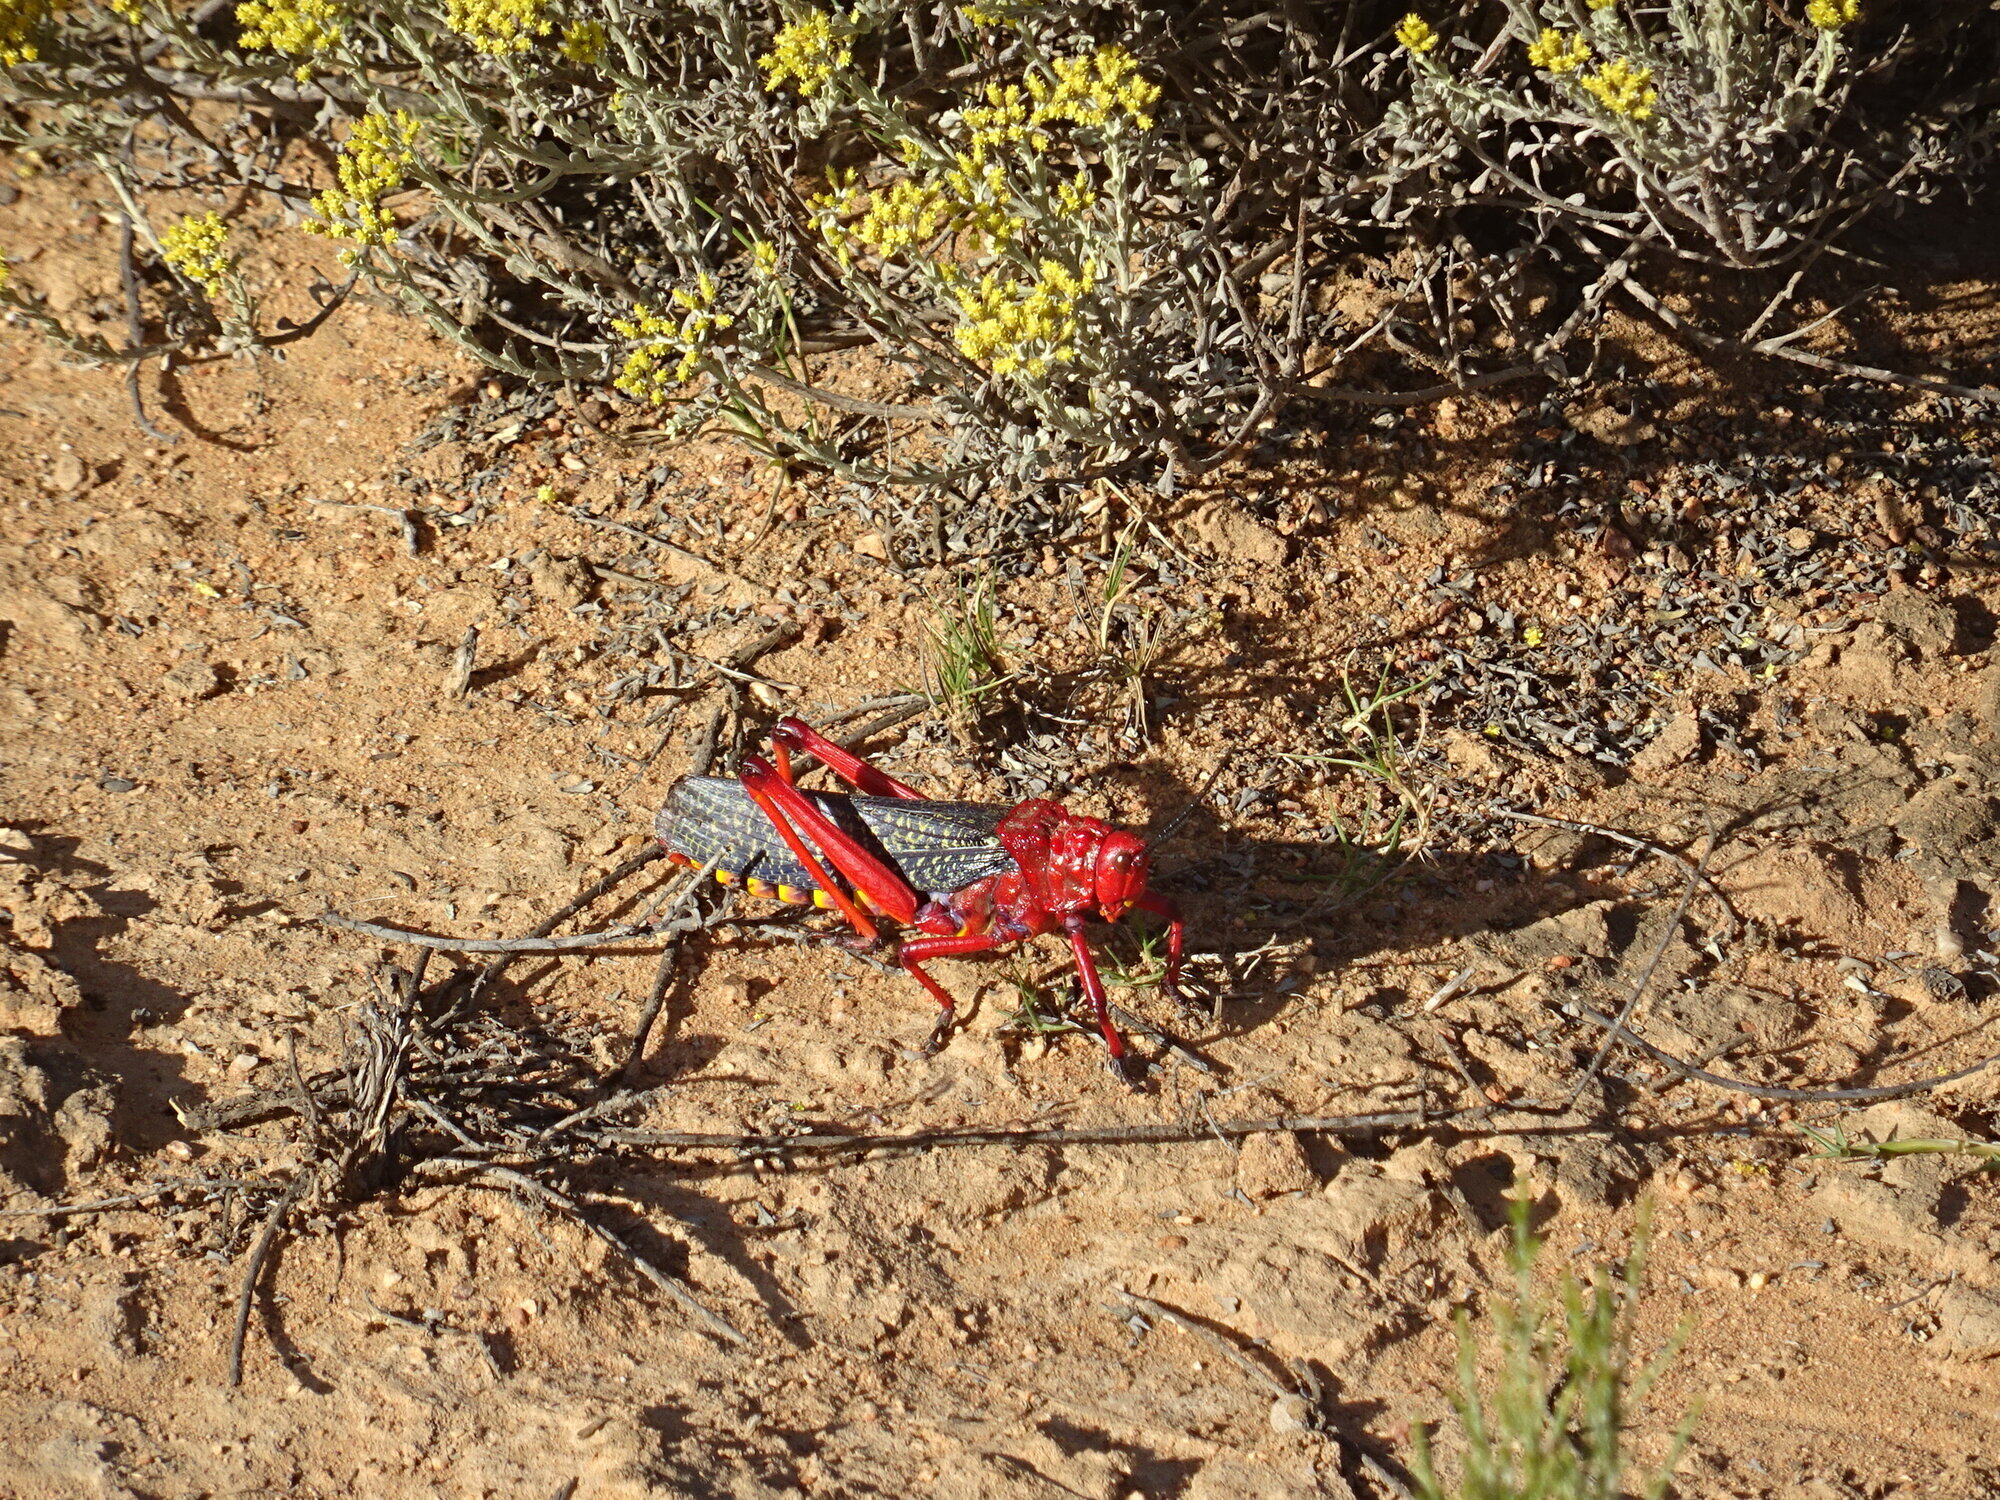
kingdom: Animalia
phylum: Arthropoda
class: Insecta
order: Orthoptera
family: Pyrgomorphidae
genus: Phymateus
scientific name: Phymateus morbillosus
